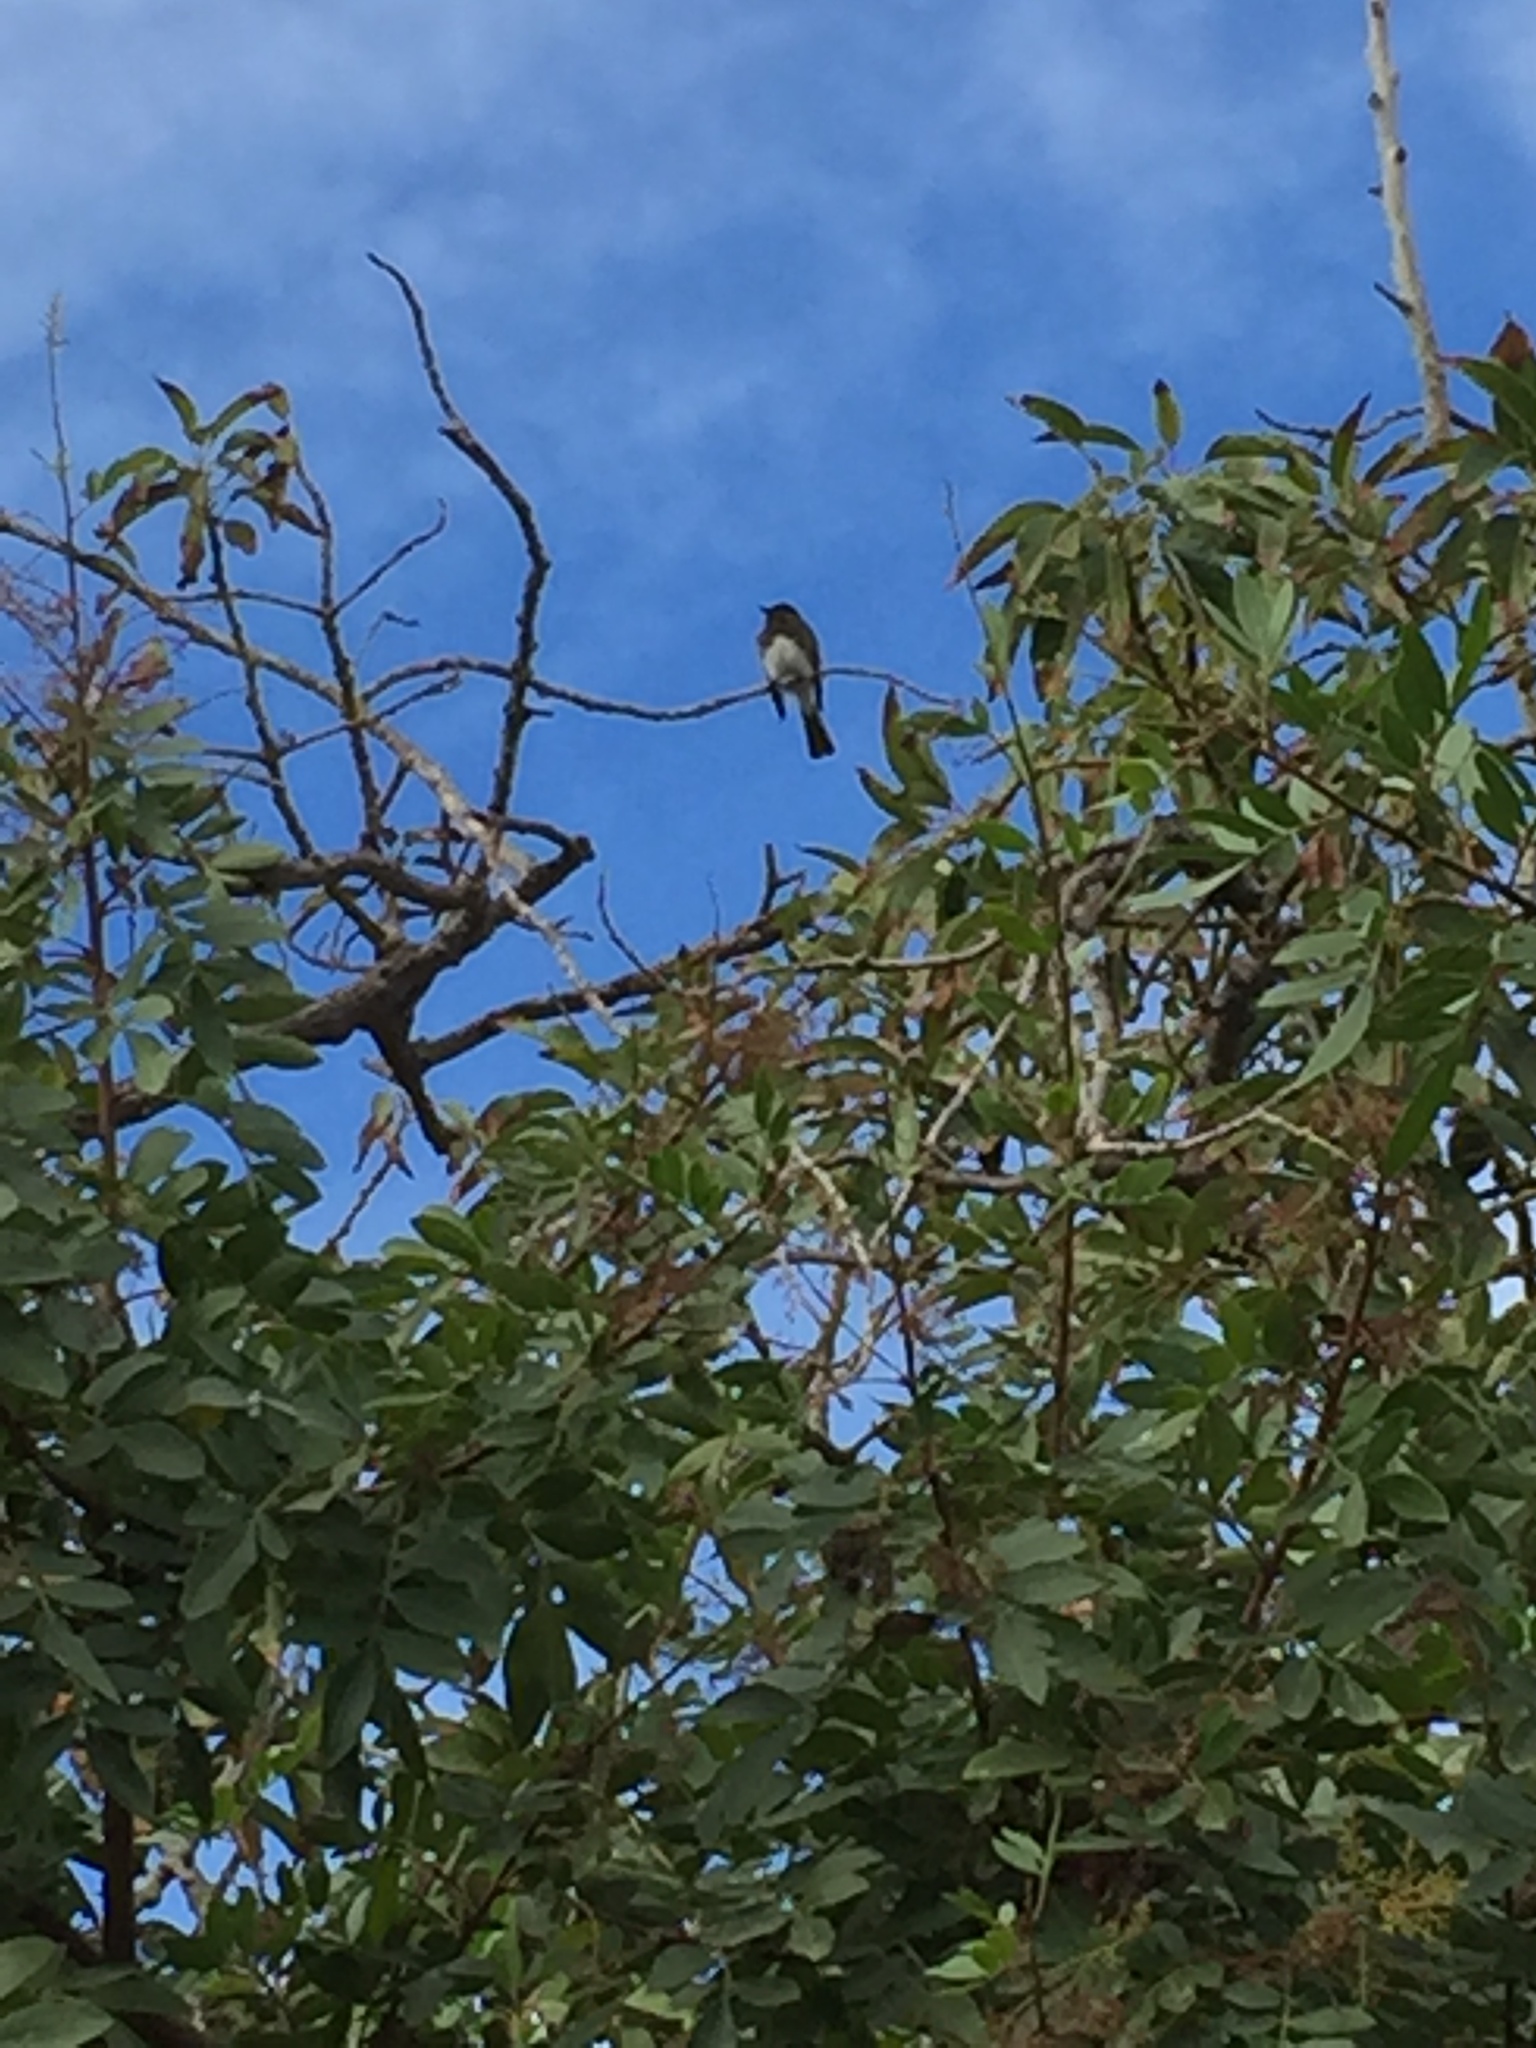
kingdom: Animalia
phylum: Chordata
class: Aves
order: Passeriformes
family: Tyrannidae
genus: Sayornis
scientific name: Sayornis nigricans
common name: Black phoebe
